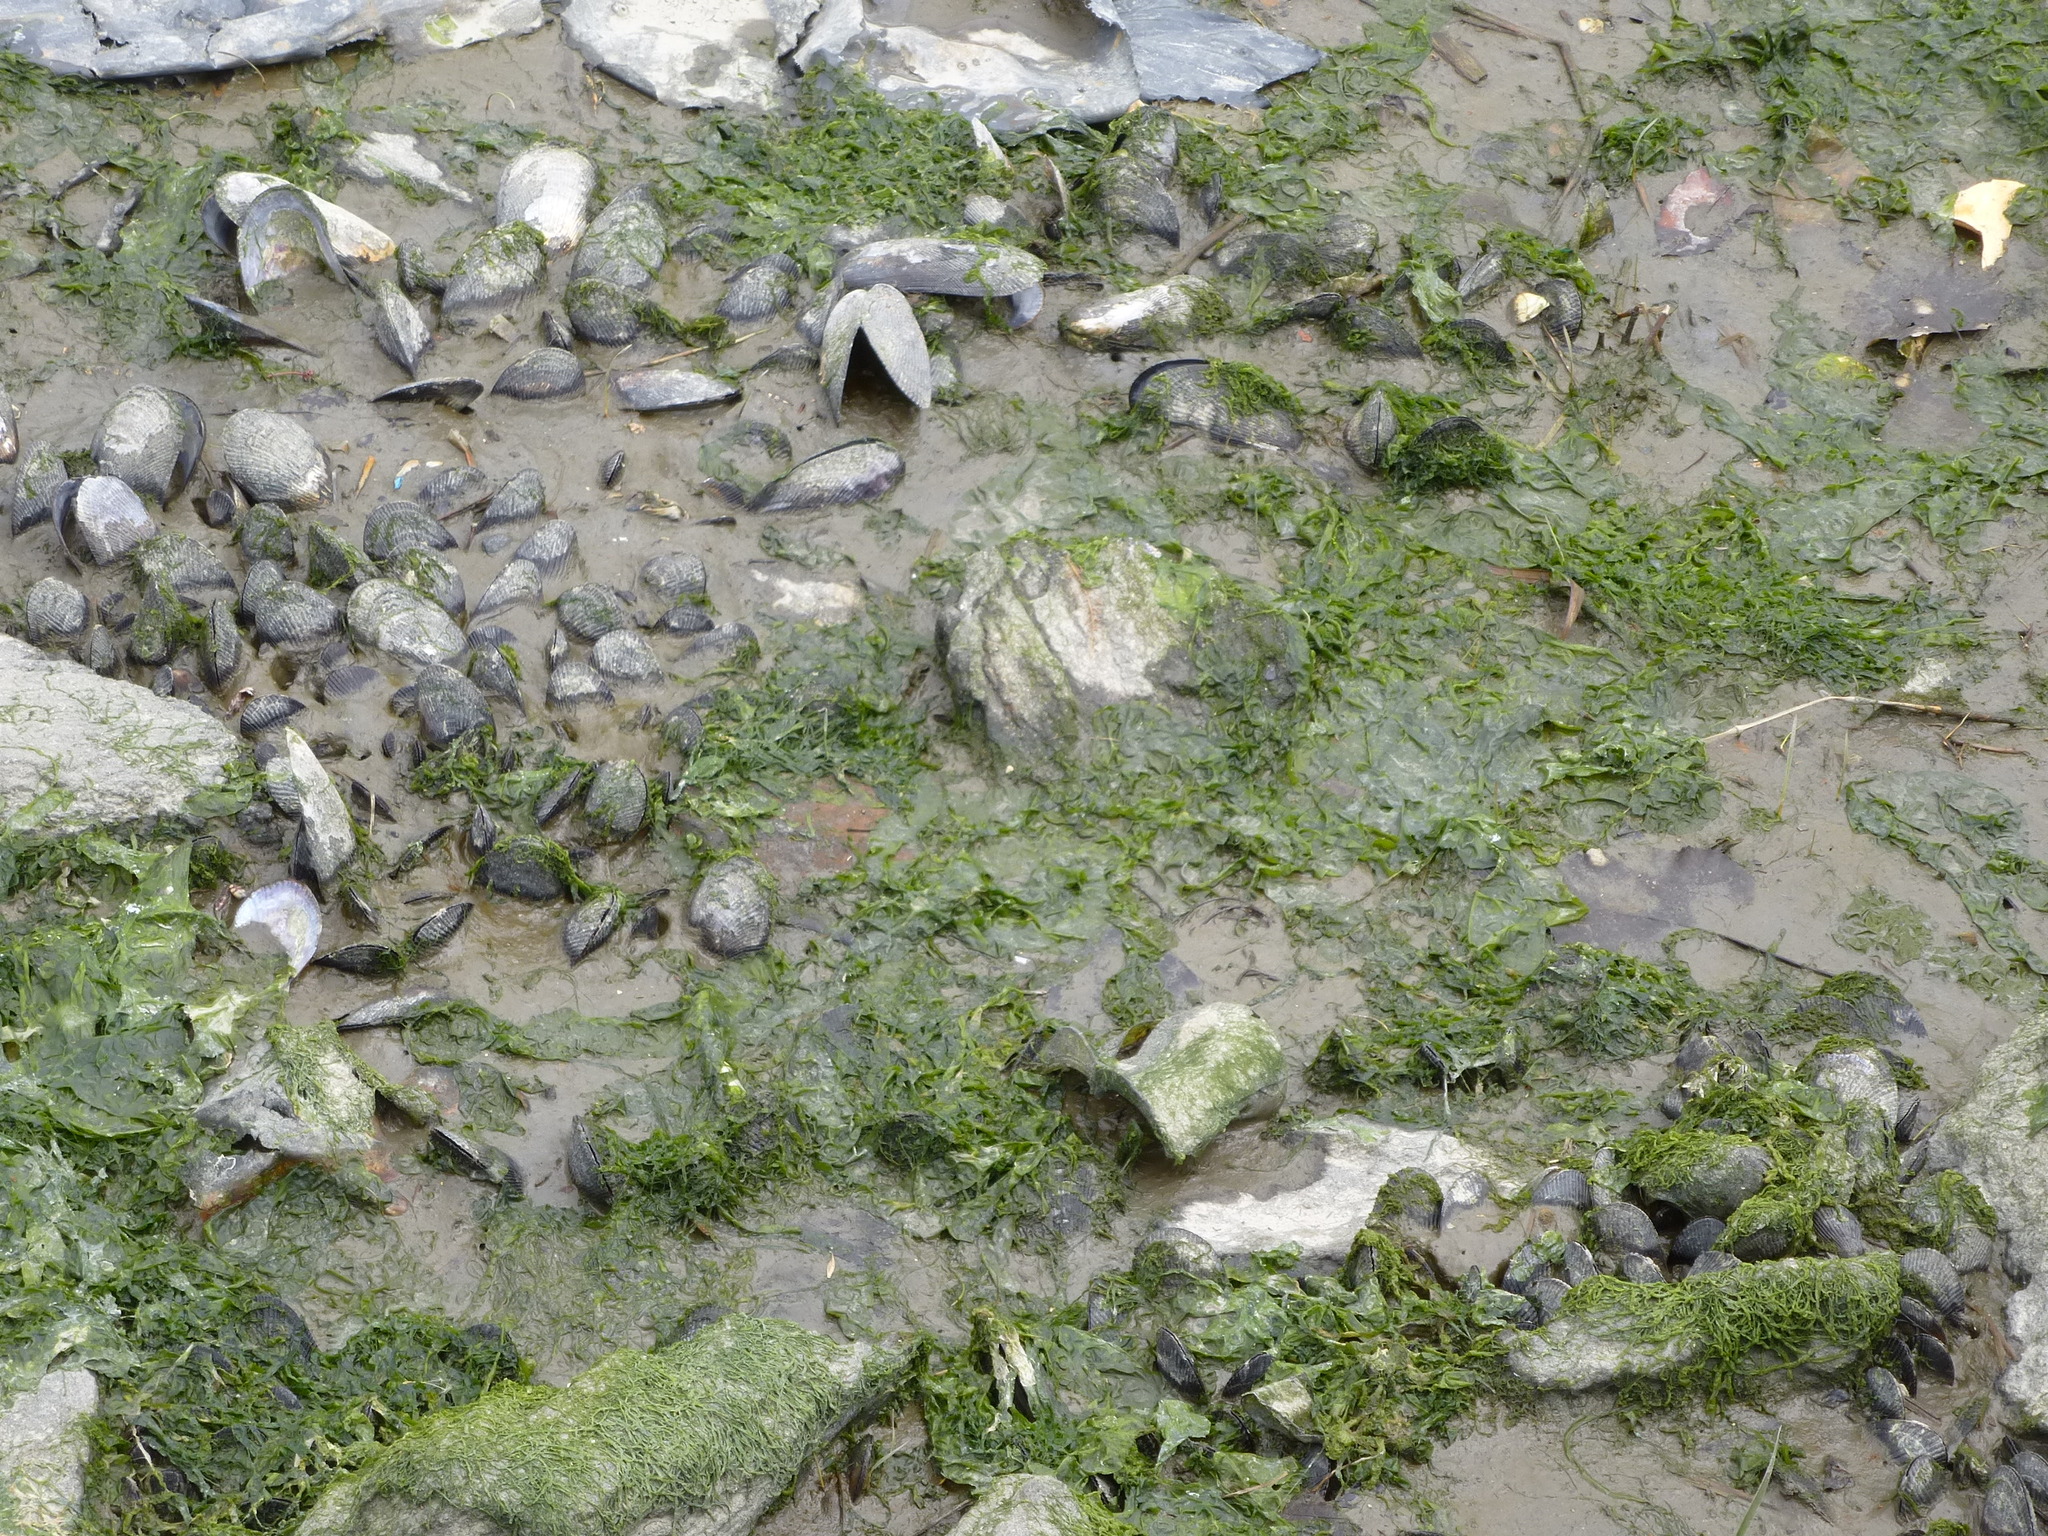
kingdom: Animalia
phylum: Mollusca
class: Bivalvia
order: Mytilida
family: Mytilidae
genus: Geukensia
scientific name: Geukensia demissa
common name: Ribbed mussel
